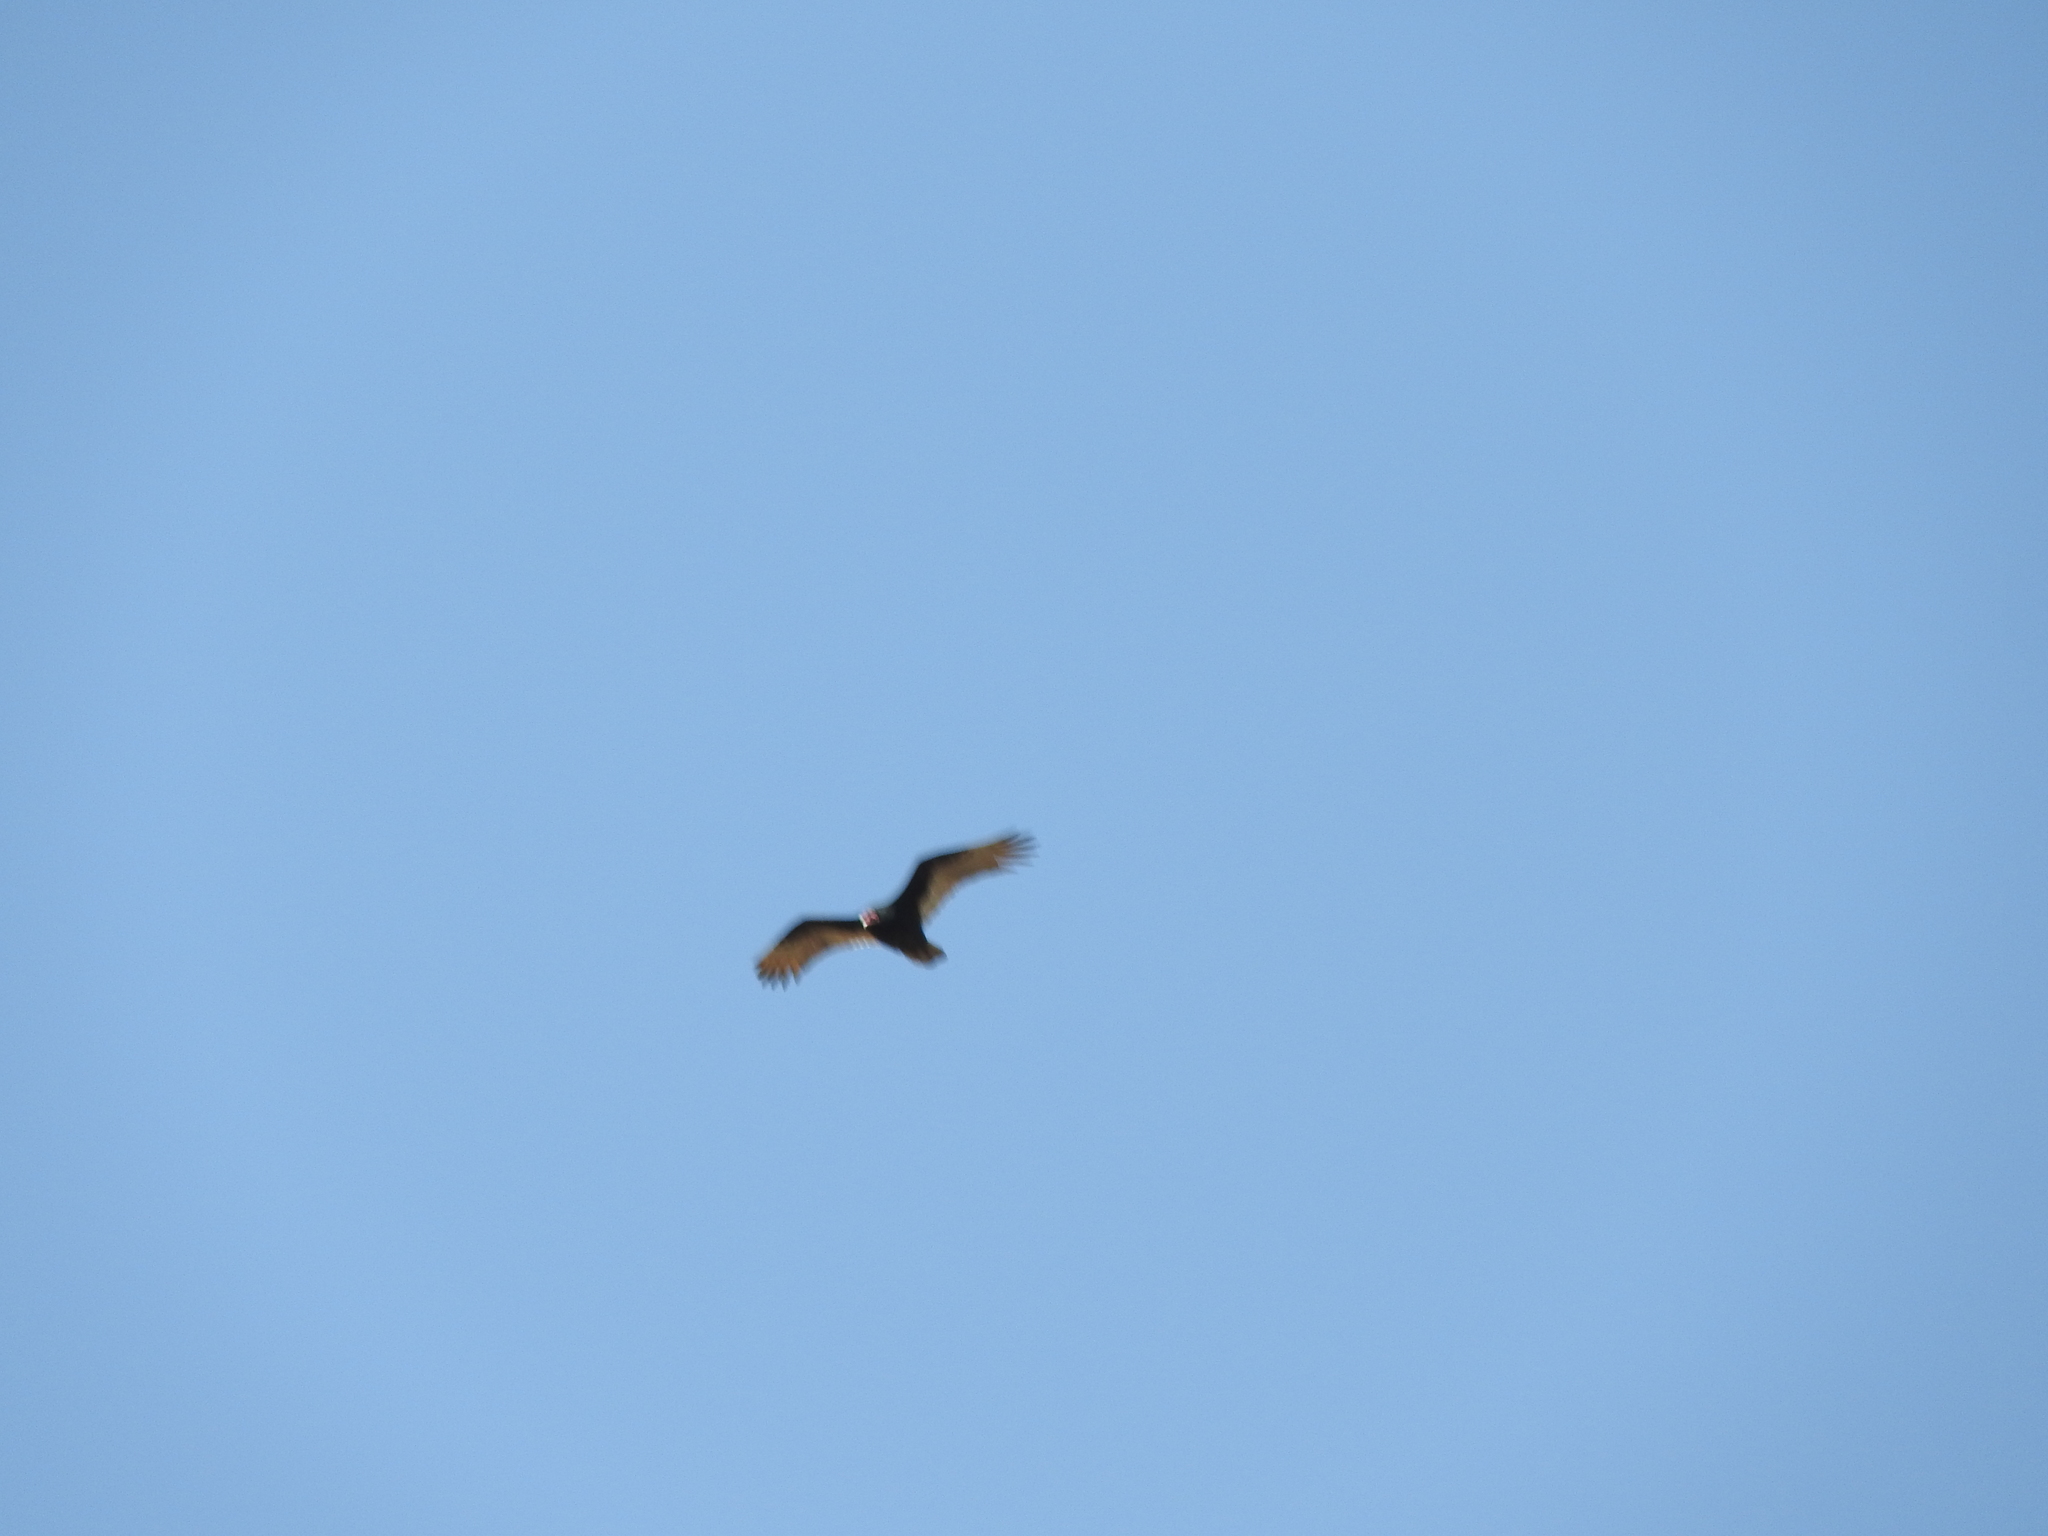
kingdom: Animalia
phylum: Chordata
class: Aves
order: Accipitriformes
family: Cathartidae
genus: Cathartes
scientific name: Cathartes aura
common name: Turkey vulture
